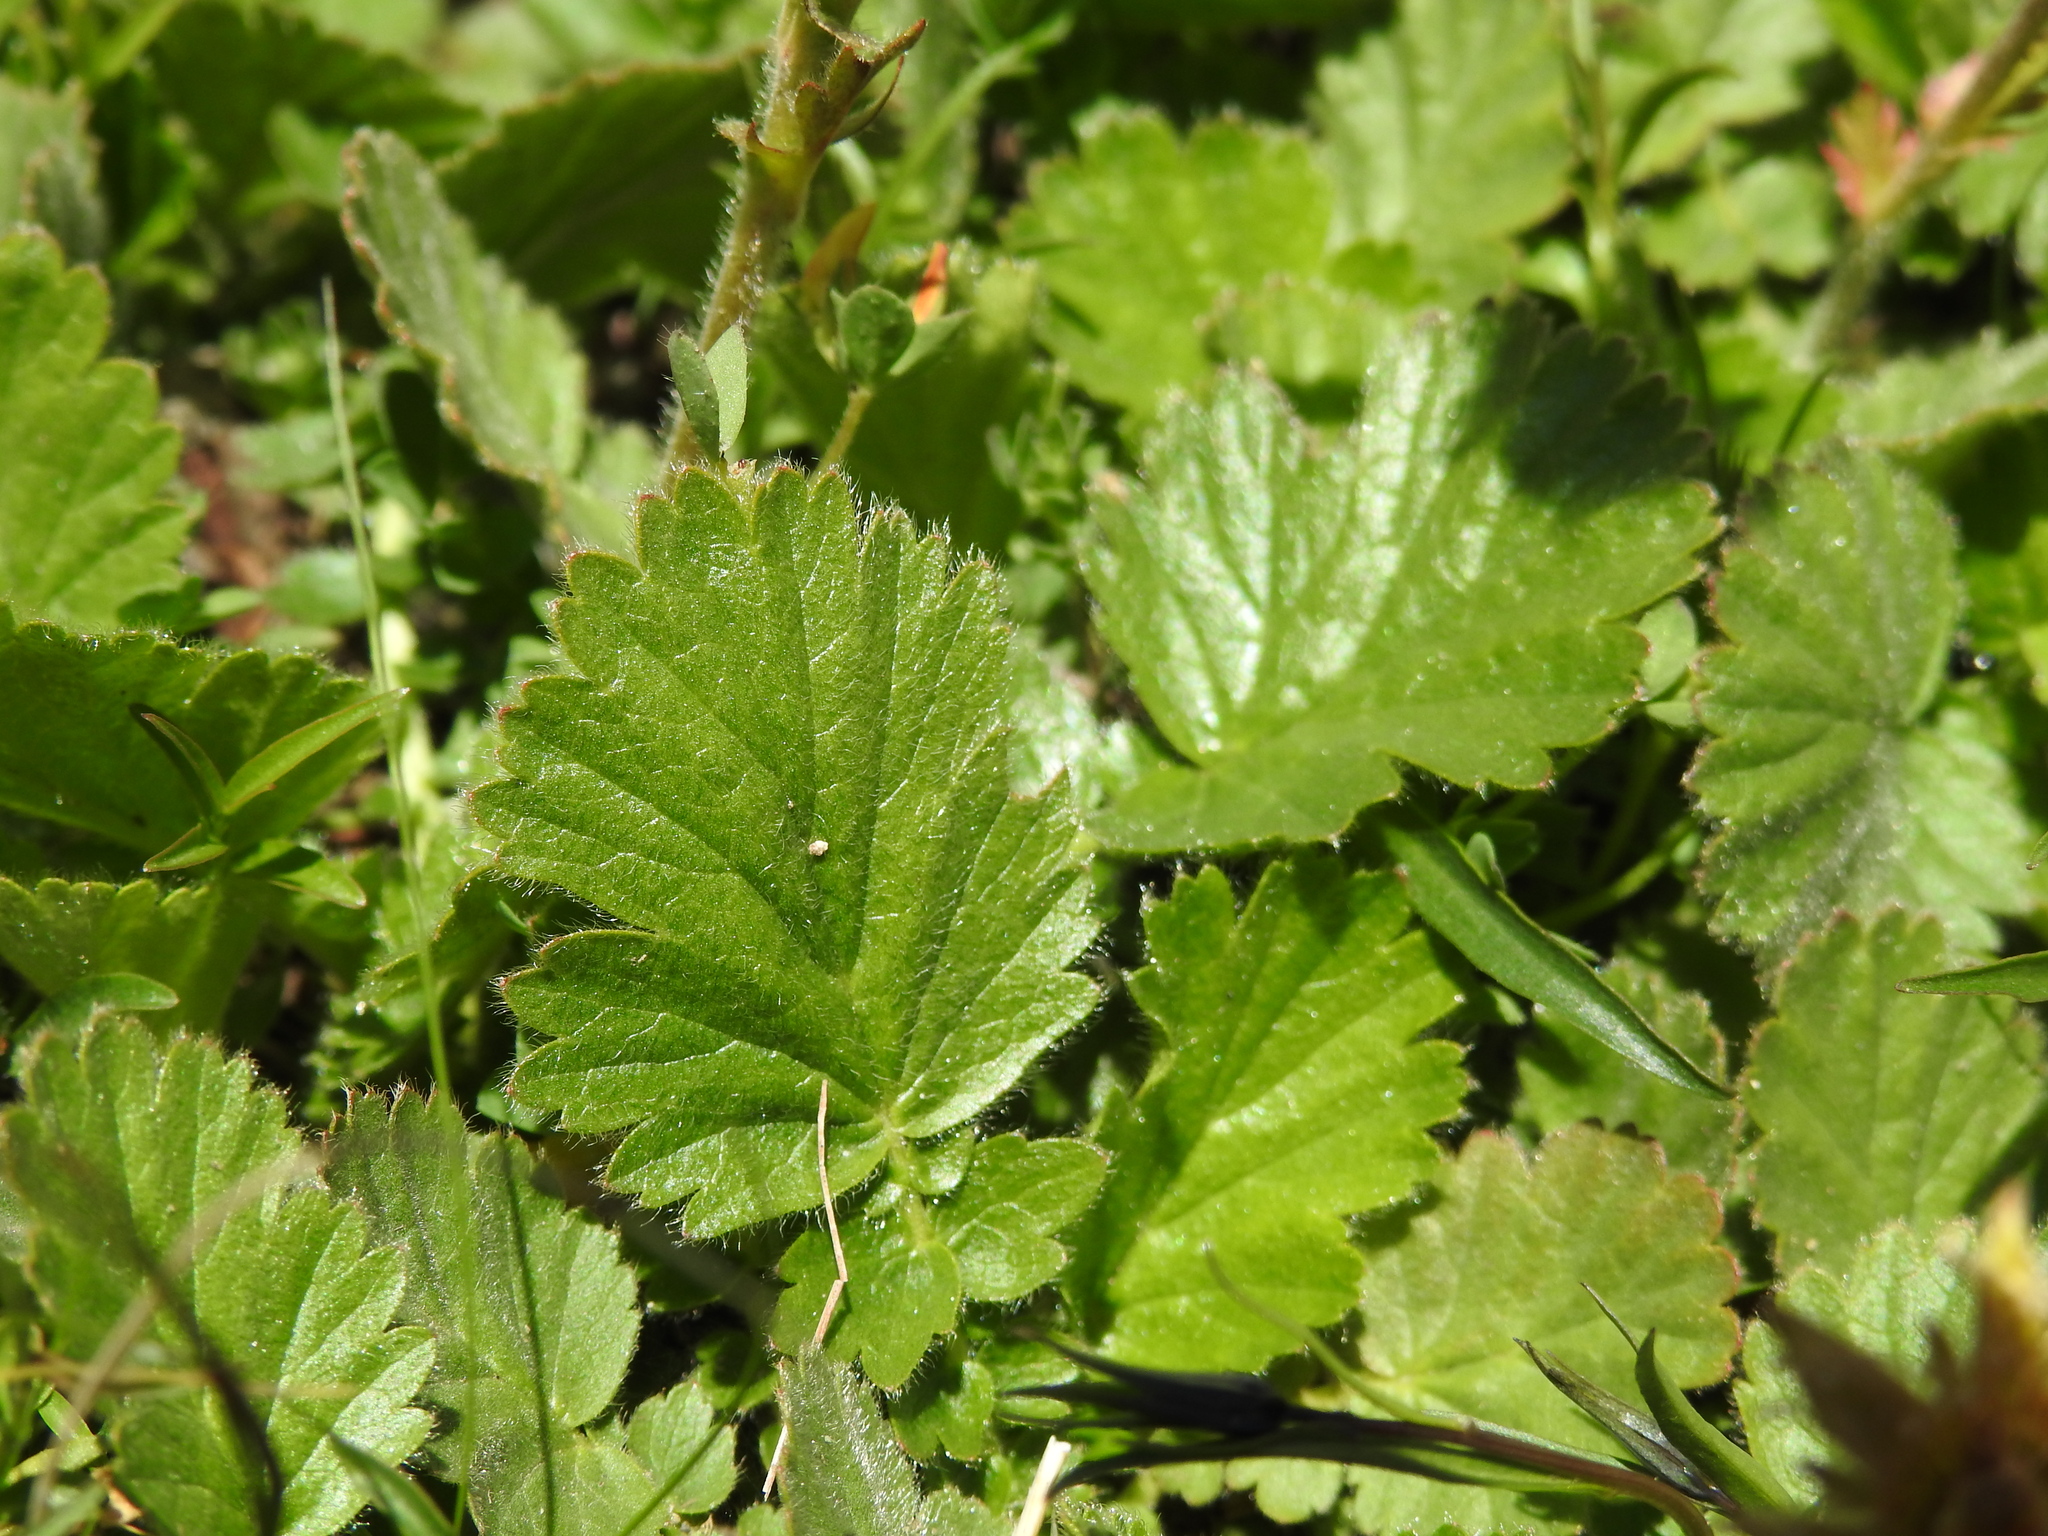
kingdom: Plantae
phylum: Tracheophyta
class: Magnoliopsida
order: Rosales
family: Rosaceae
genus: Geum
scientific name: Geum montanum
